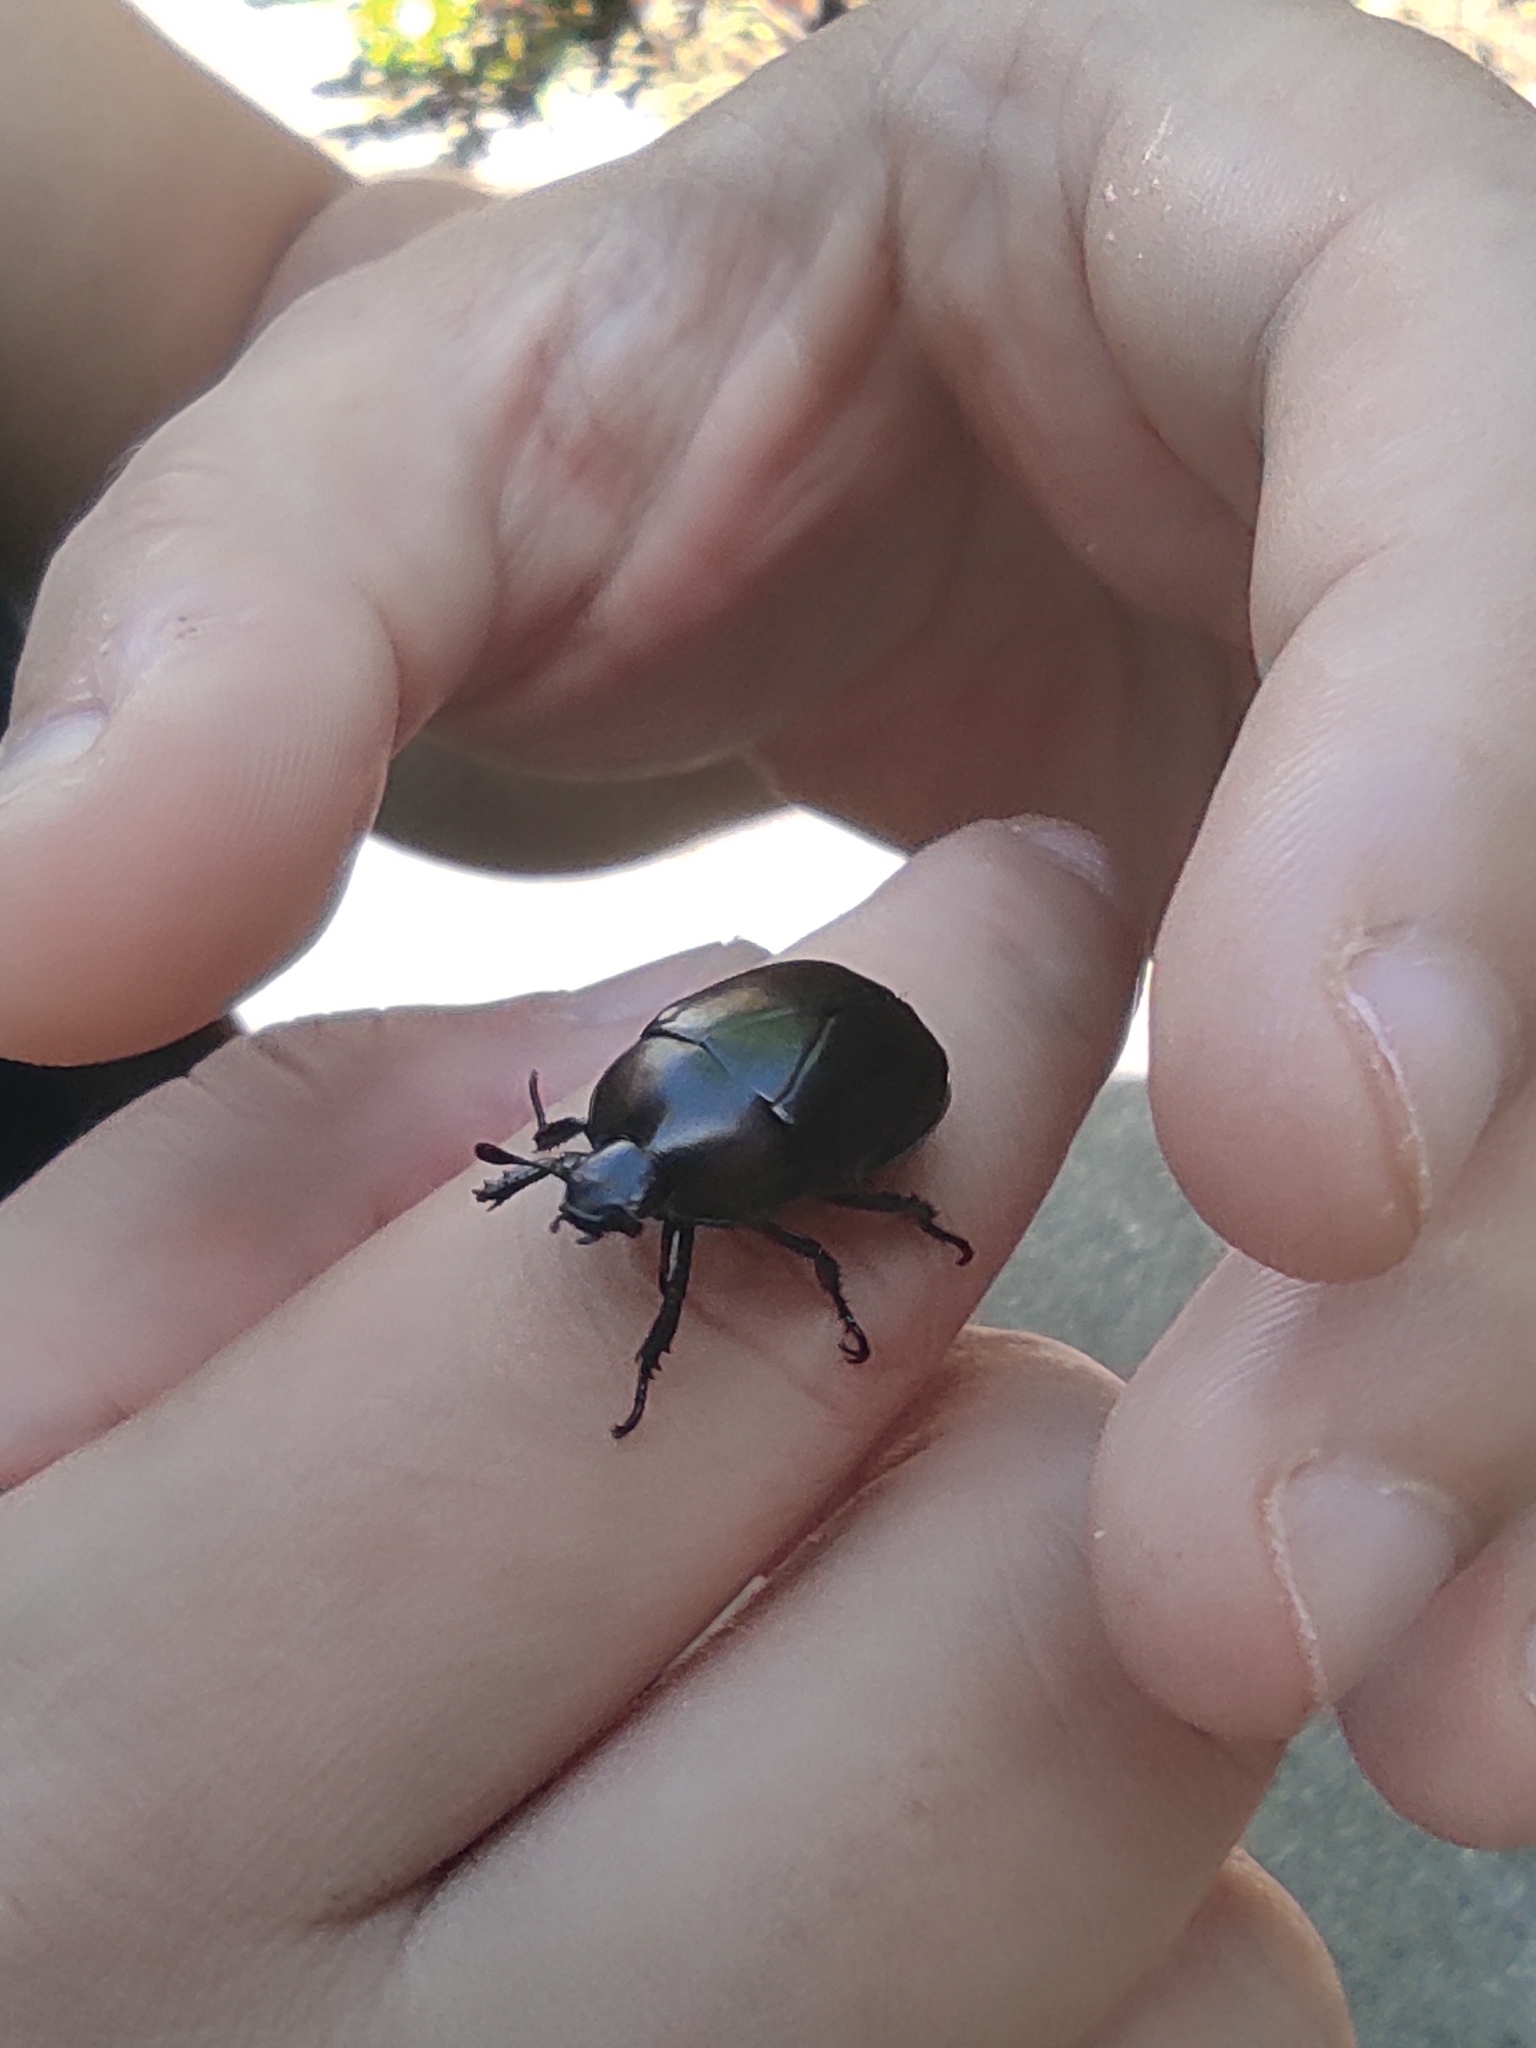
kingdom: Animalia
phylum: Arthropoda
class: Insecta
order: Coleoptera
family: Scarabaeidae
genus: Macraspis
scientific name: Macraspis morio
